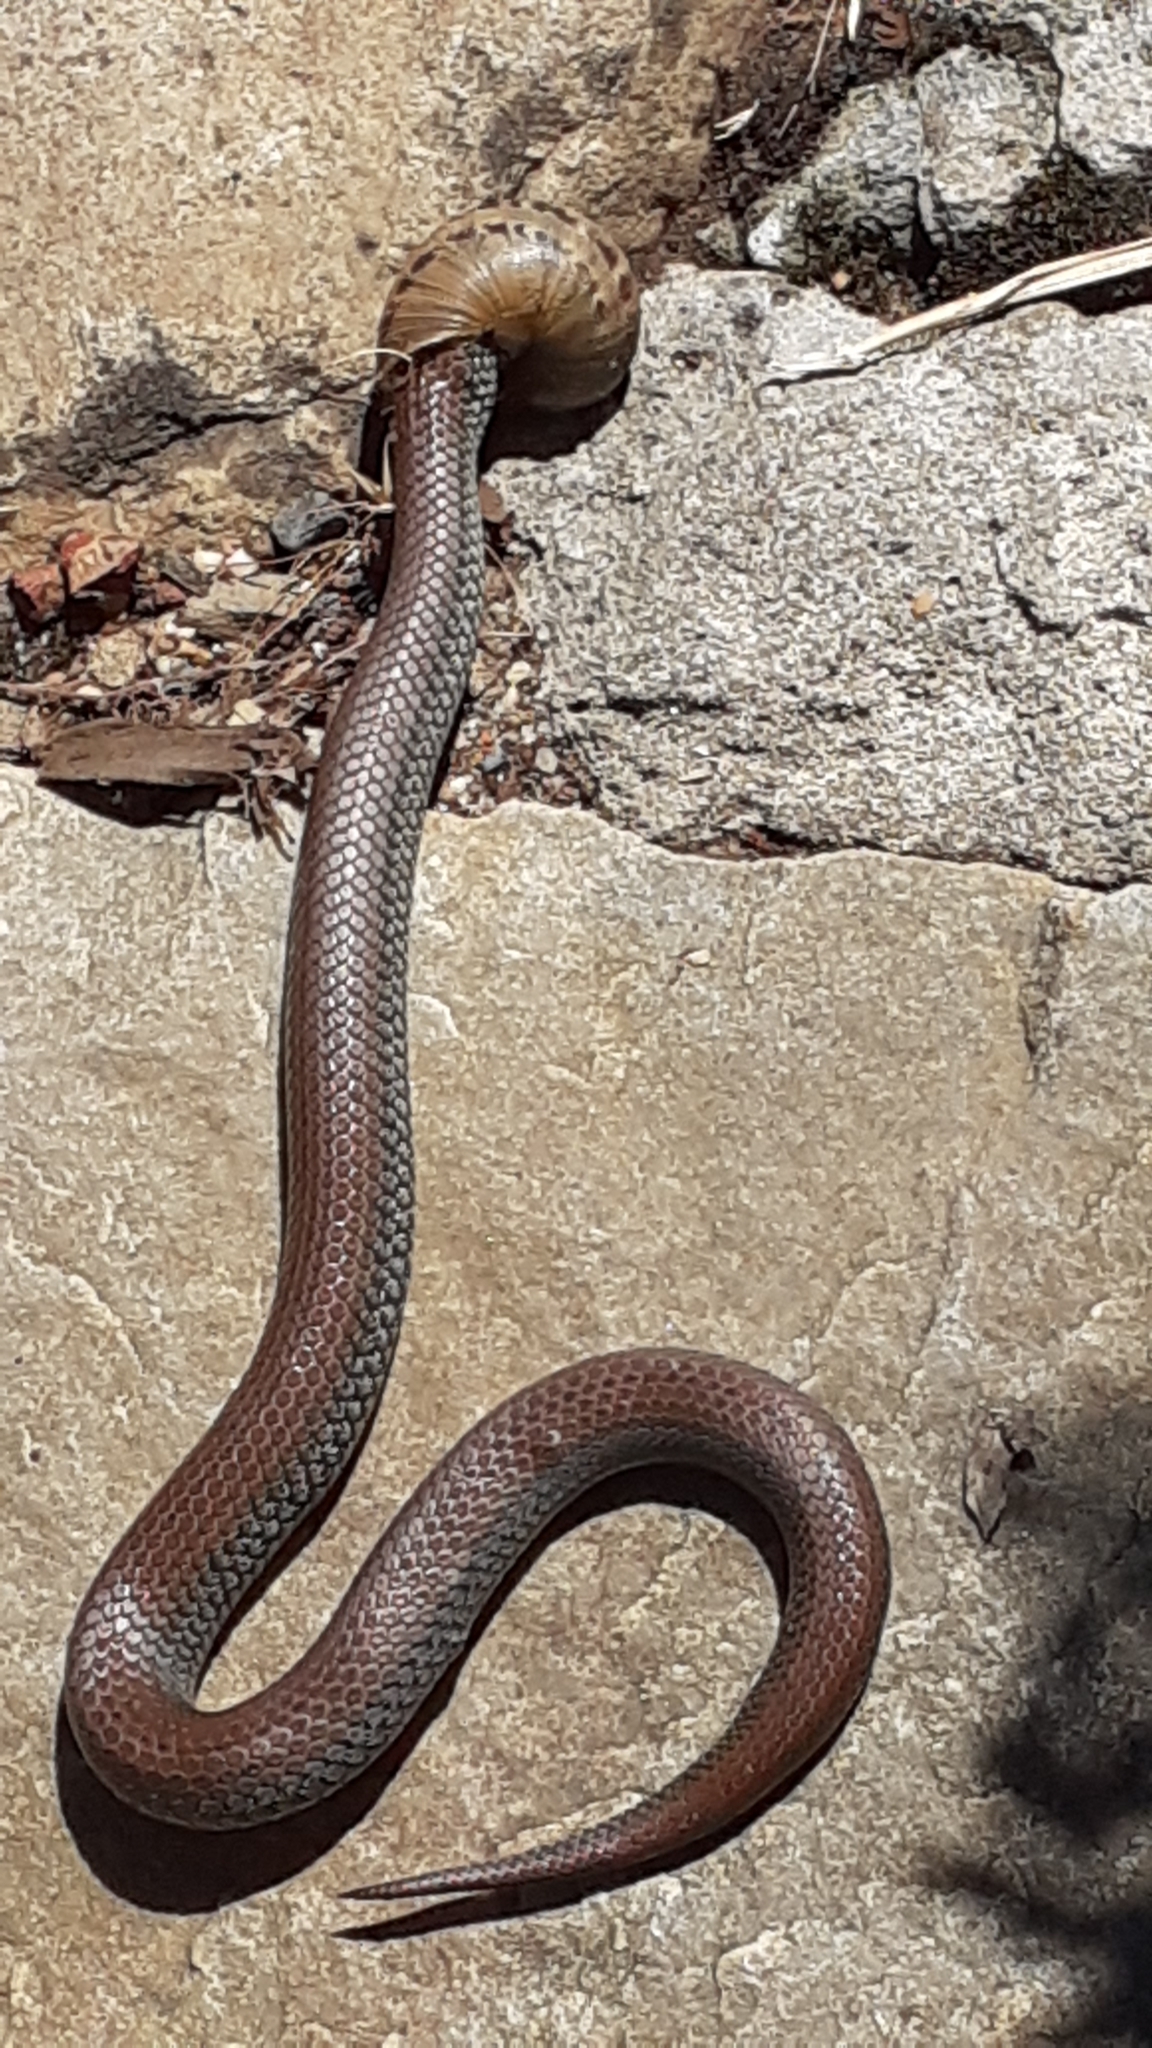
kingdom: Animalia
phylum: Chordata
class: Squamata
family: Pseudoxyrhophiidae
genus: Duberria
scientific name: Duberria lutrix
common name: Common slug eater
